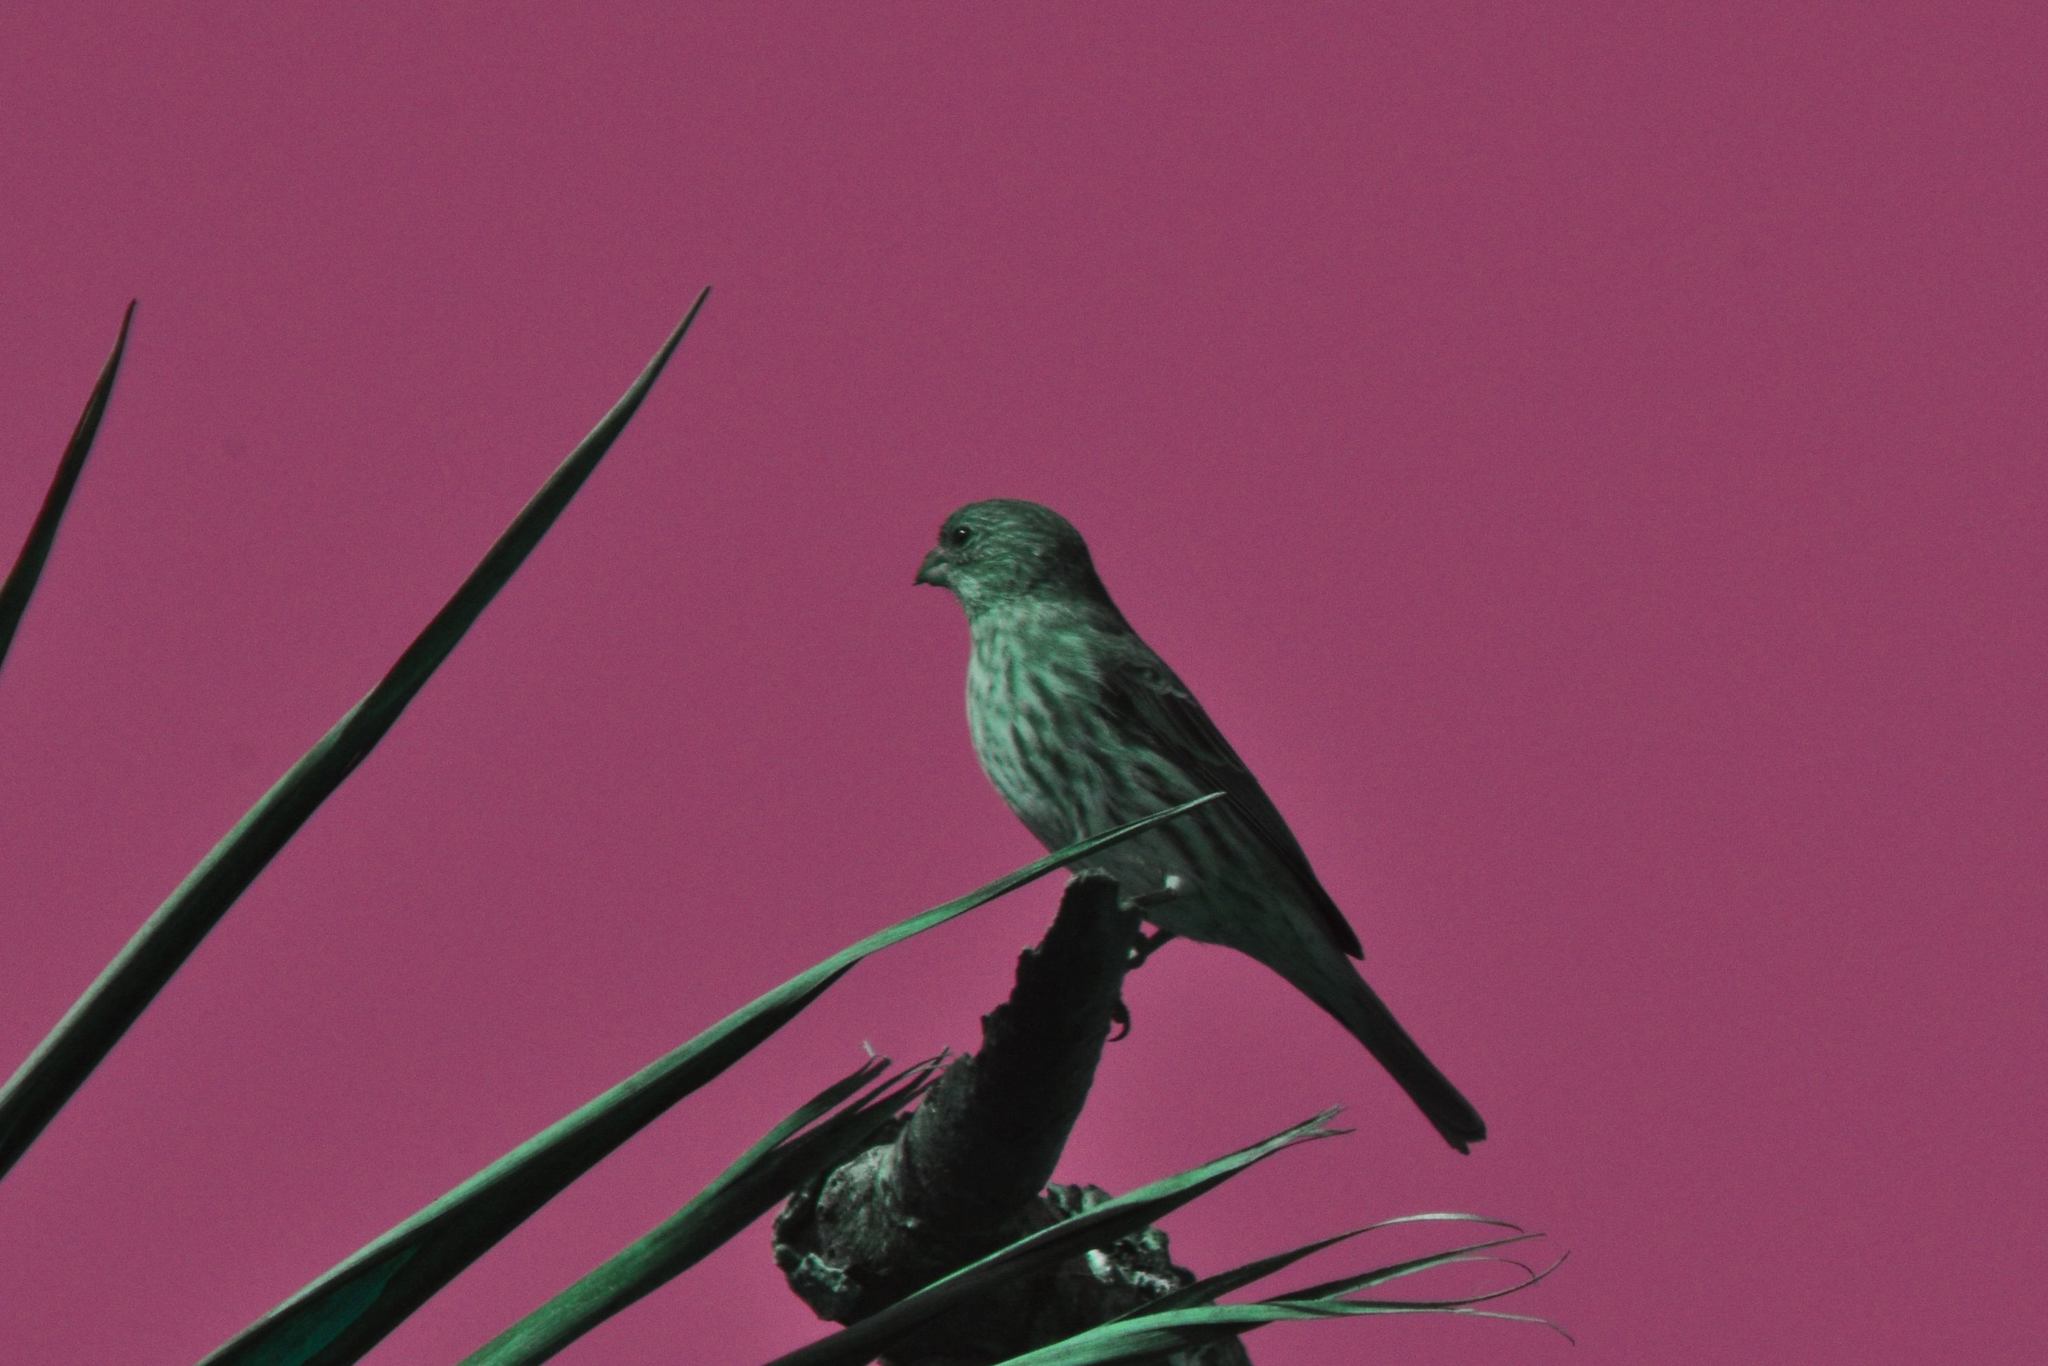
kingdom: Animalia
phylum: Chordata
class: Aves
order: Passeriformes
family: Fringillidae
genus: Haemorhous
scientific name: Haemorhous mexicanus
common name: House finch
